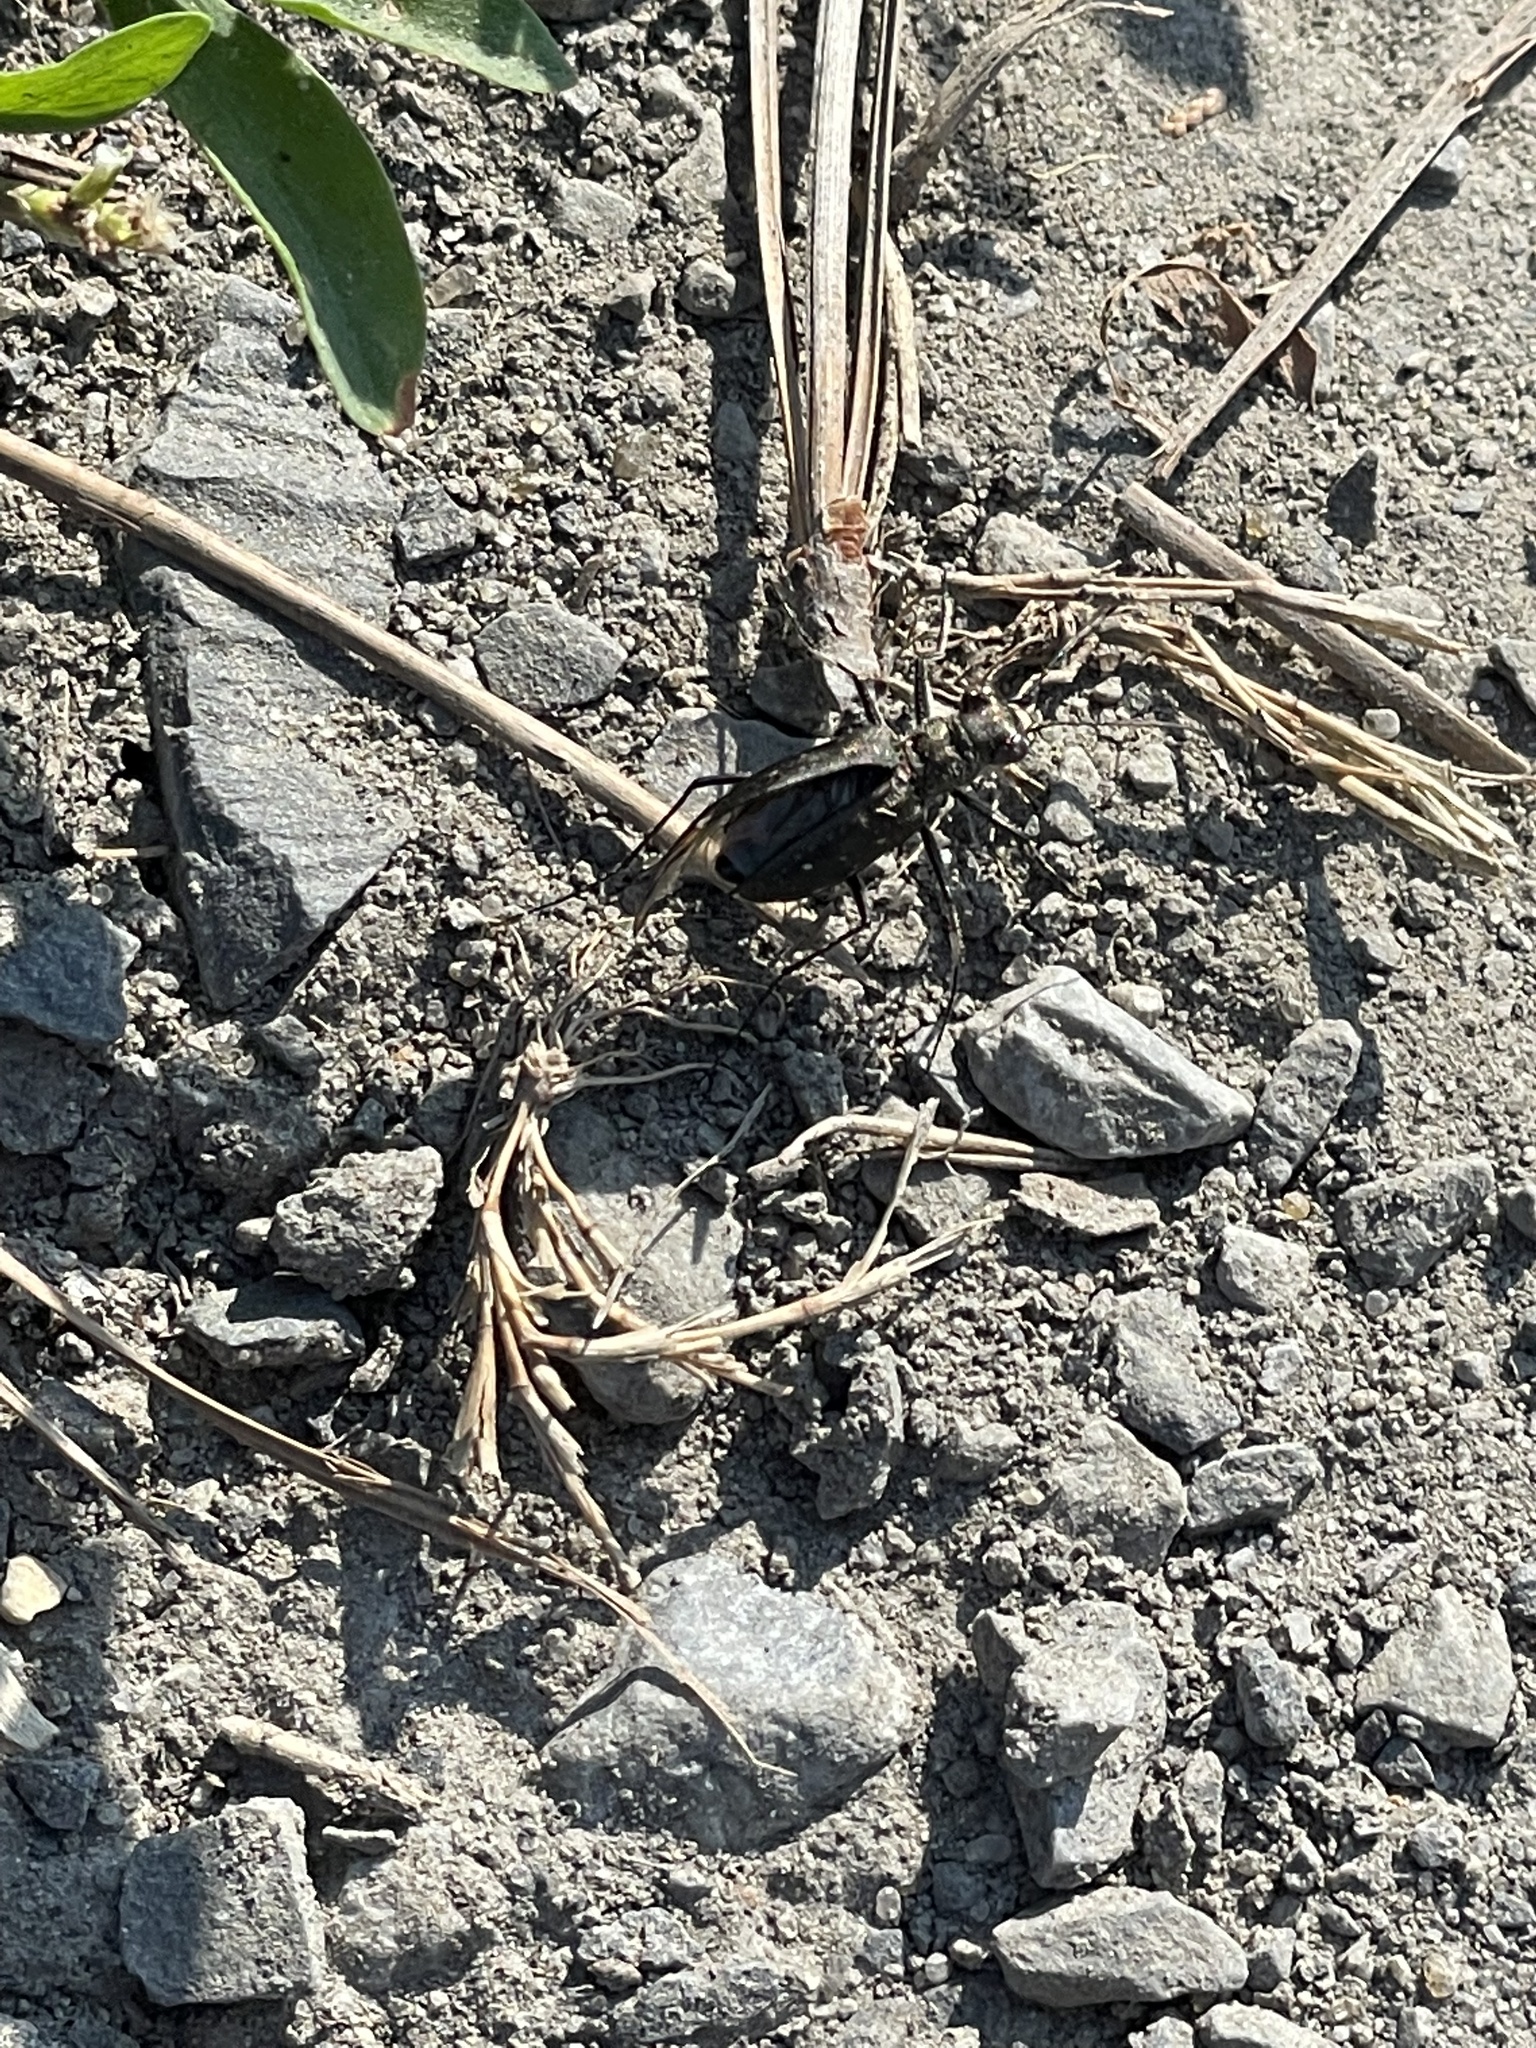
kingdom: Animalia
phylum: Arthropoda
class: Insecta
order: Coleoptera
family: Carabidae
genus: Cicindela
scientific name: Cicindela punctulata
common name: Punctured tiger beetle
